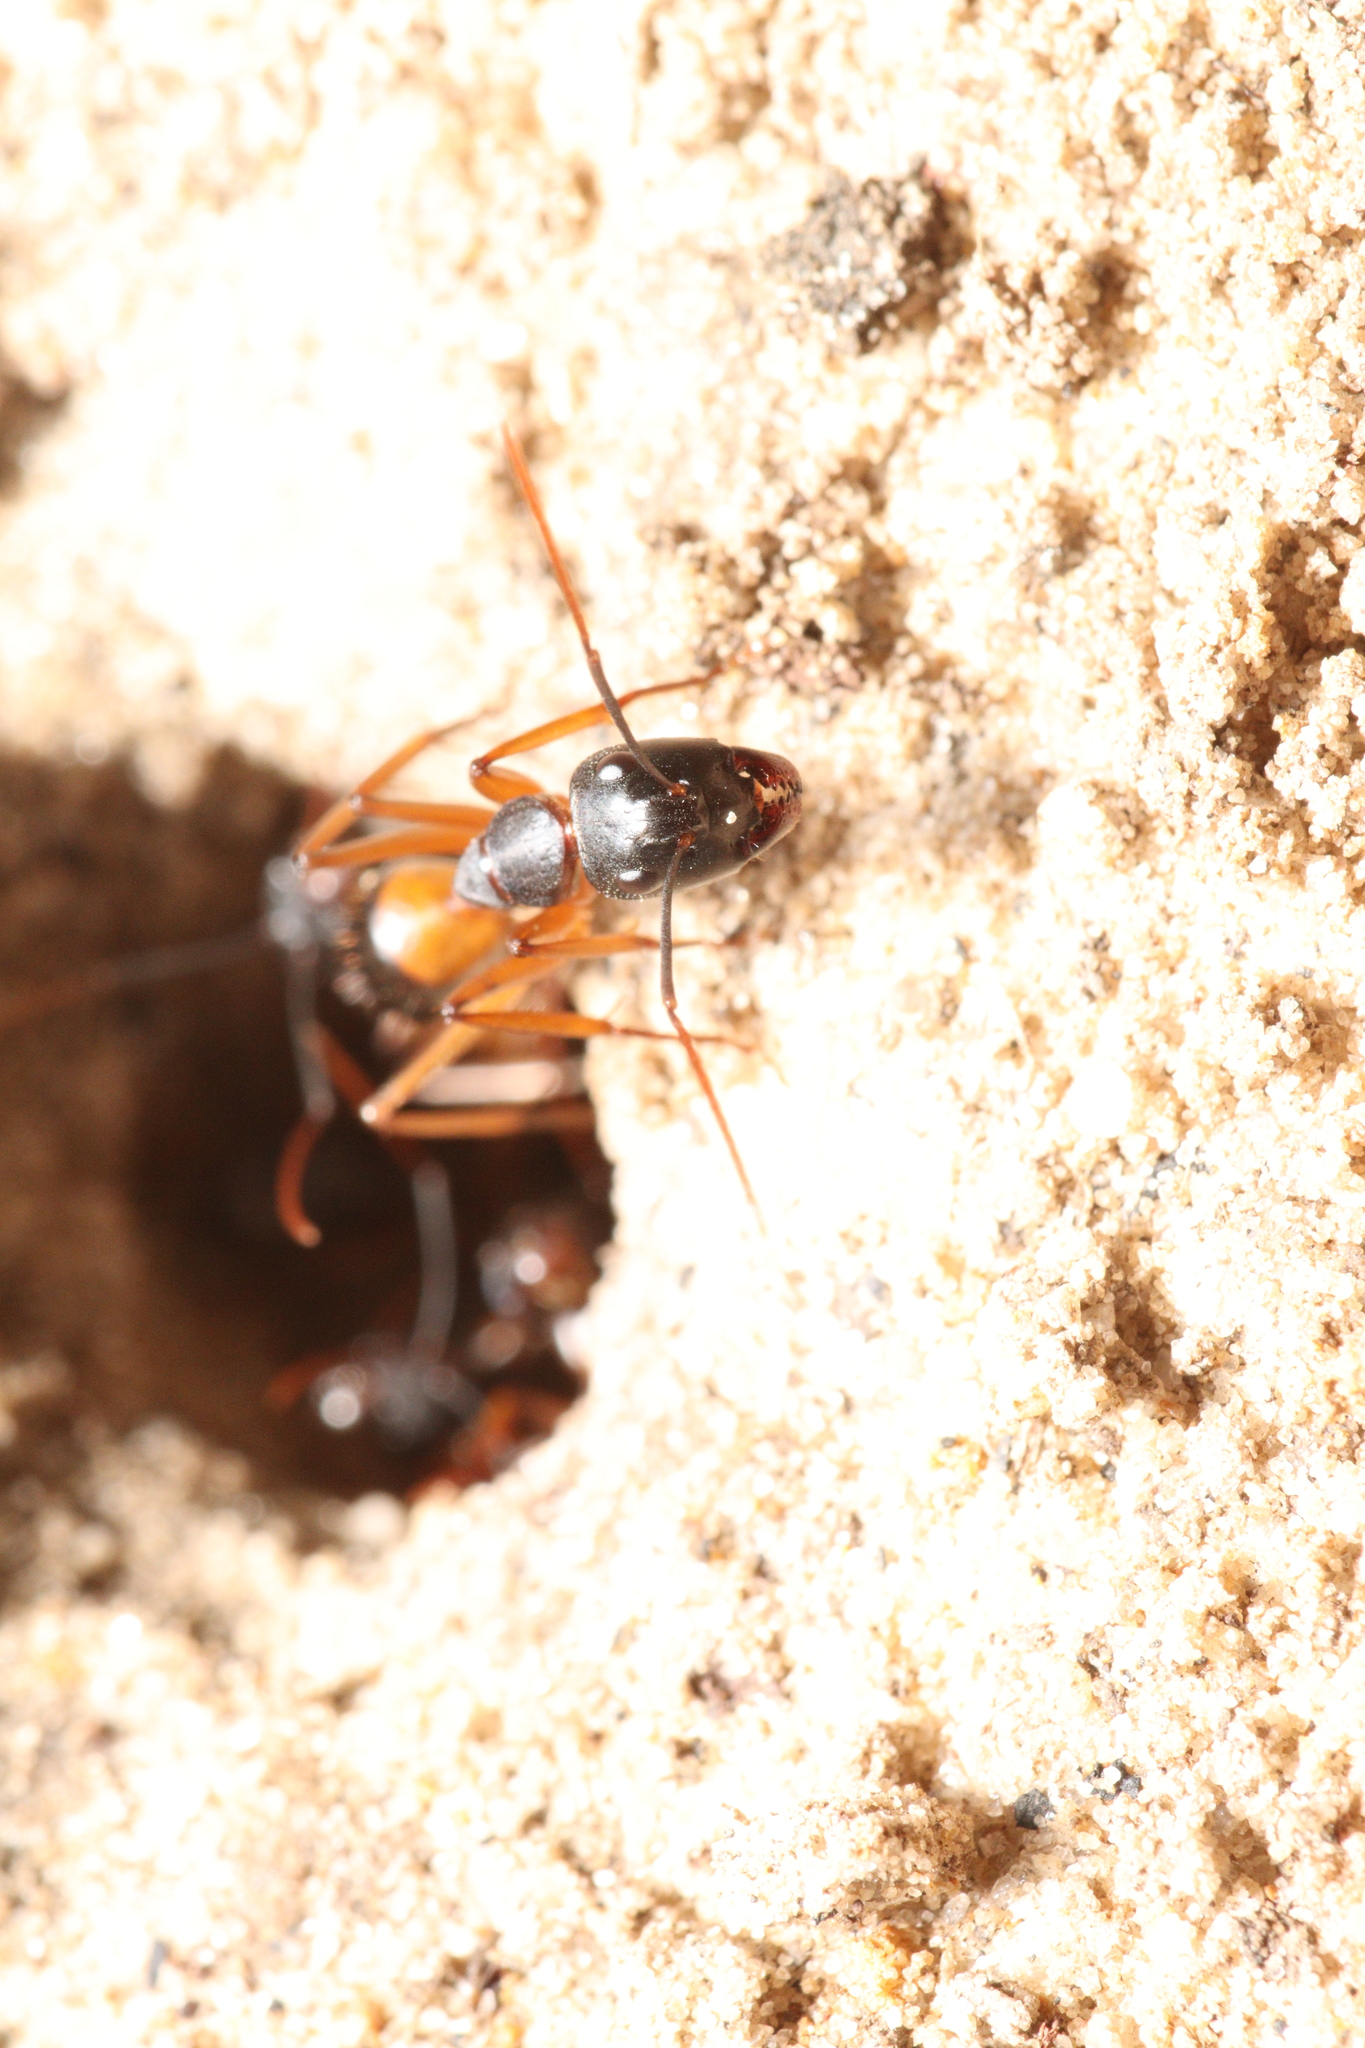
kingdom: Animalia
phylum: Arthropoda
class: Insecta
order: Hymenoptera
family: Formicidae
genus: Camponotus
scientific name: Camponotus consobrinus
